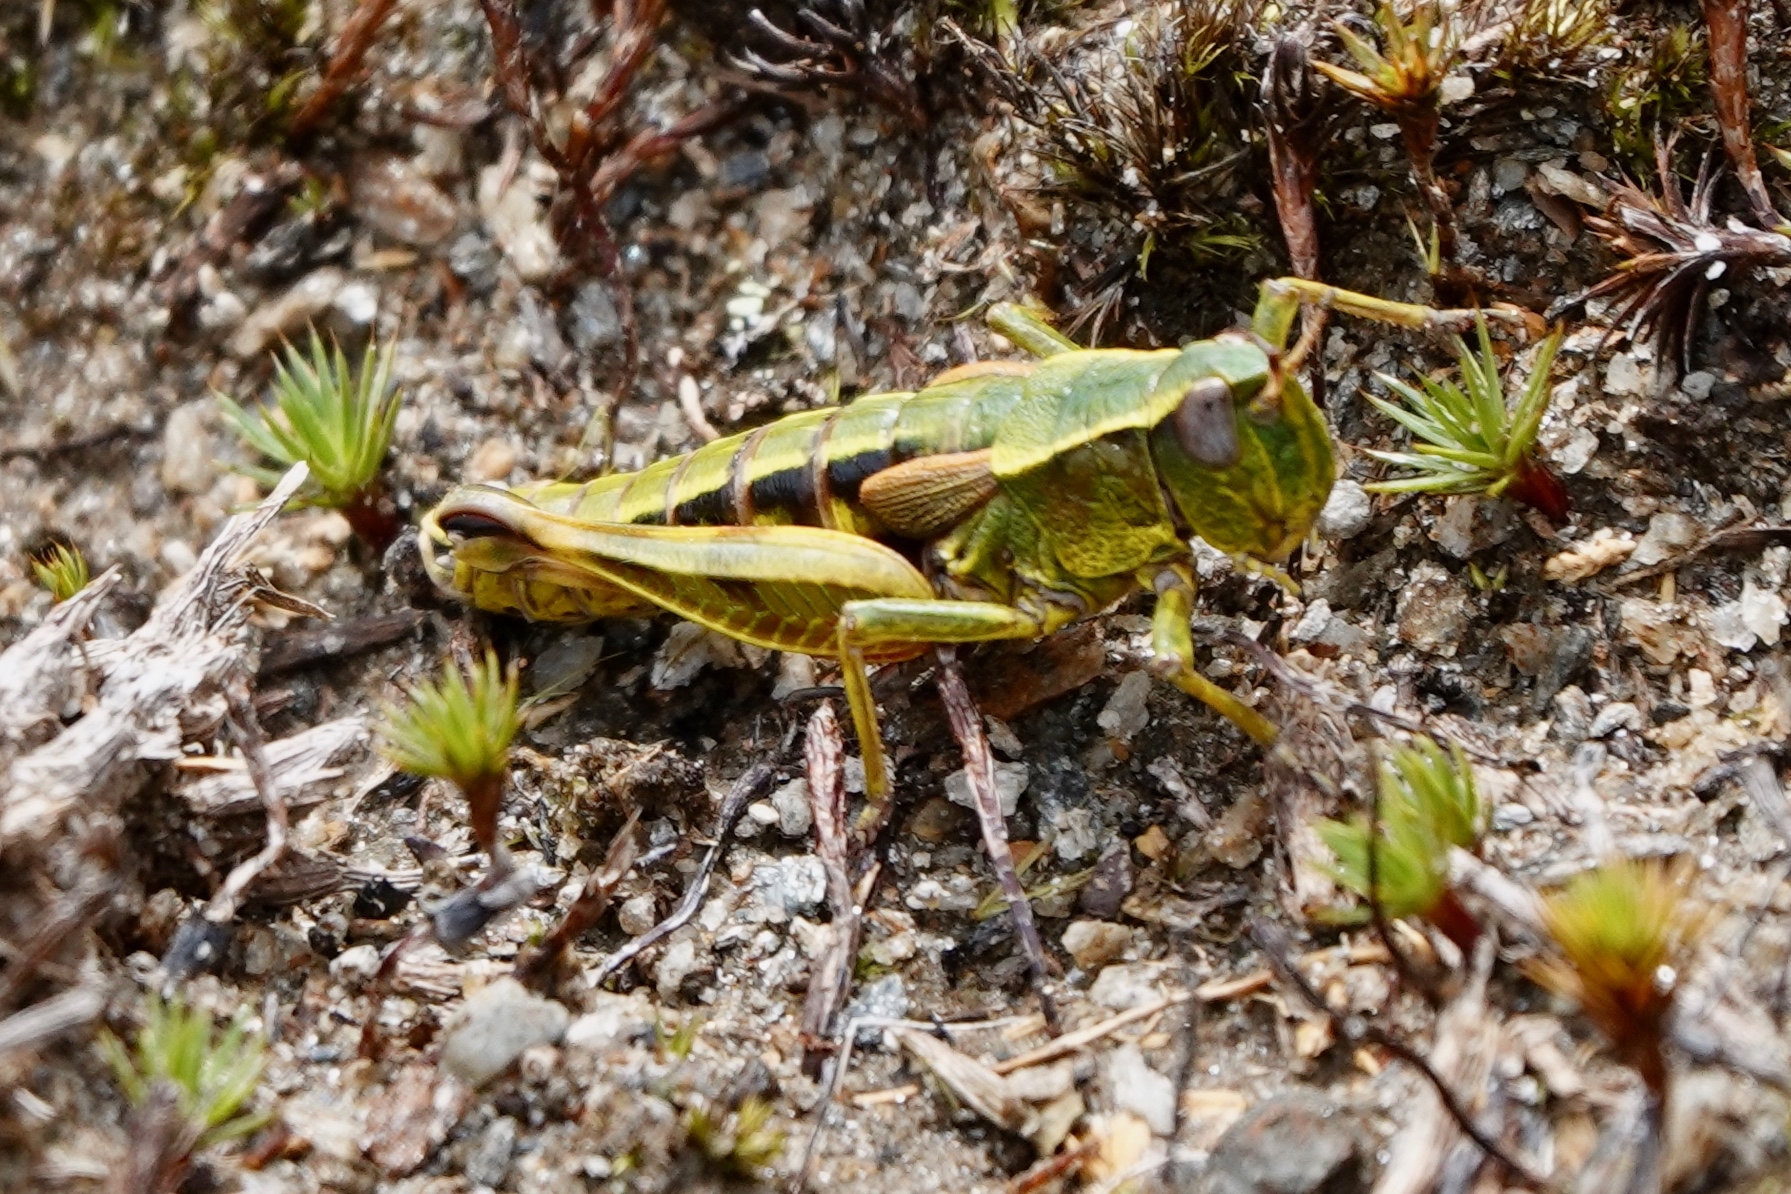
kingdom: Animalia
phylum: Arthropoda
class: Insecta
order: Orthoptera
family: Acrididae
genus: Sigaus
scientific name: Sigaus australis
